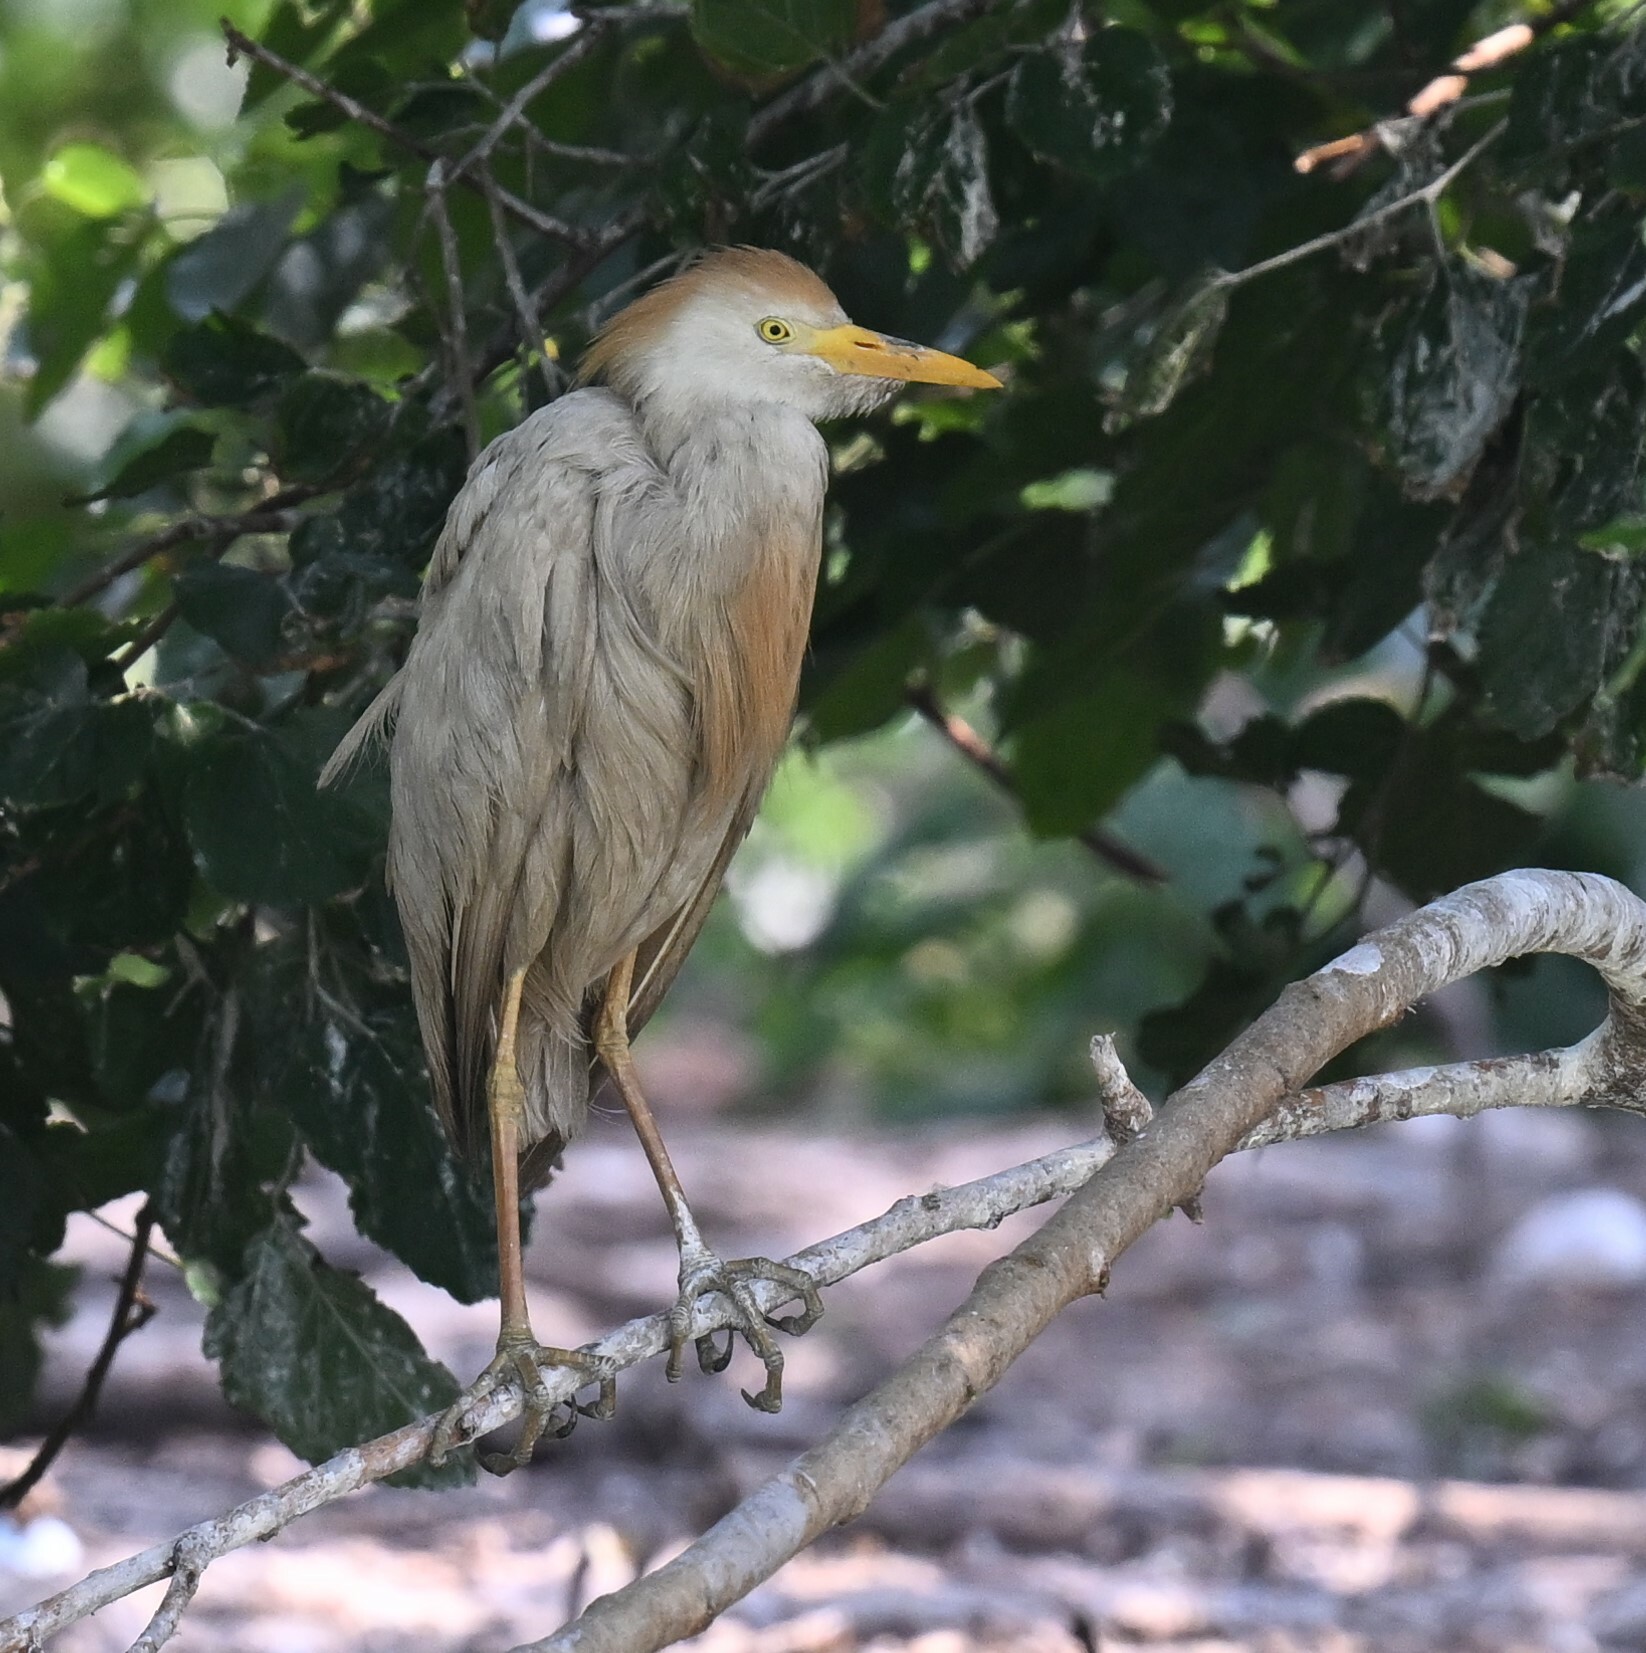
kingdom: Animalia
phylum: Chordata
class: Aves
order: Pelecaniformes
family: Ardeidae
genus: Bubulcus
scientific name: Bubulcus ibis
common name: Cattle egret
